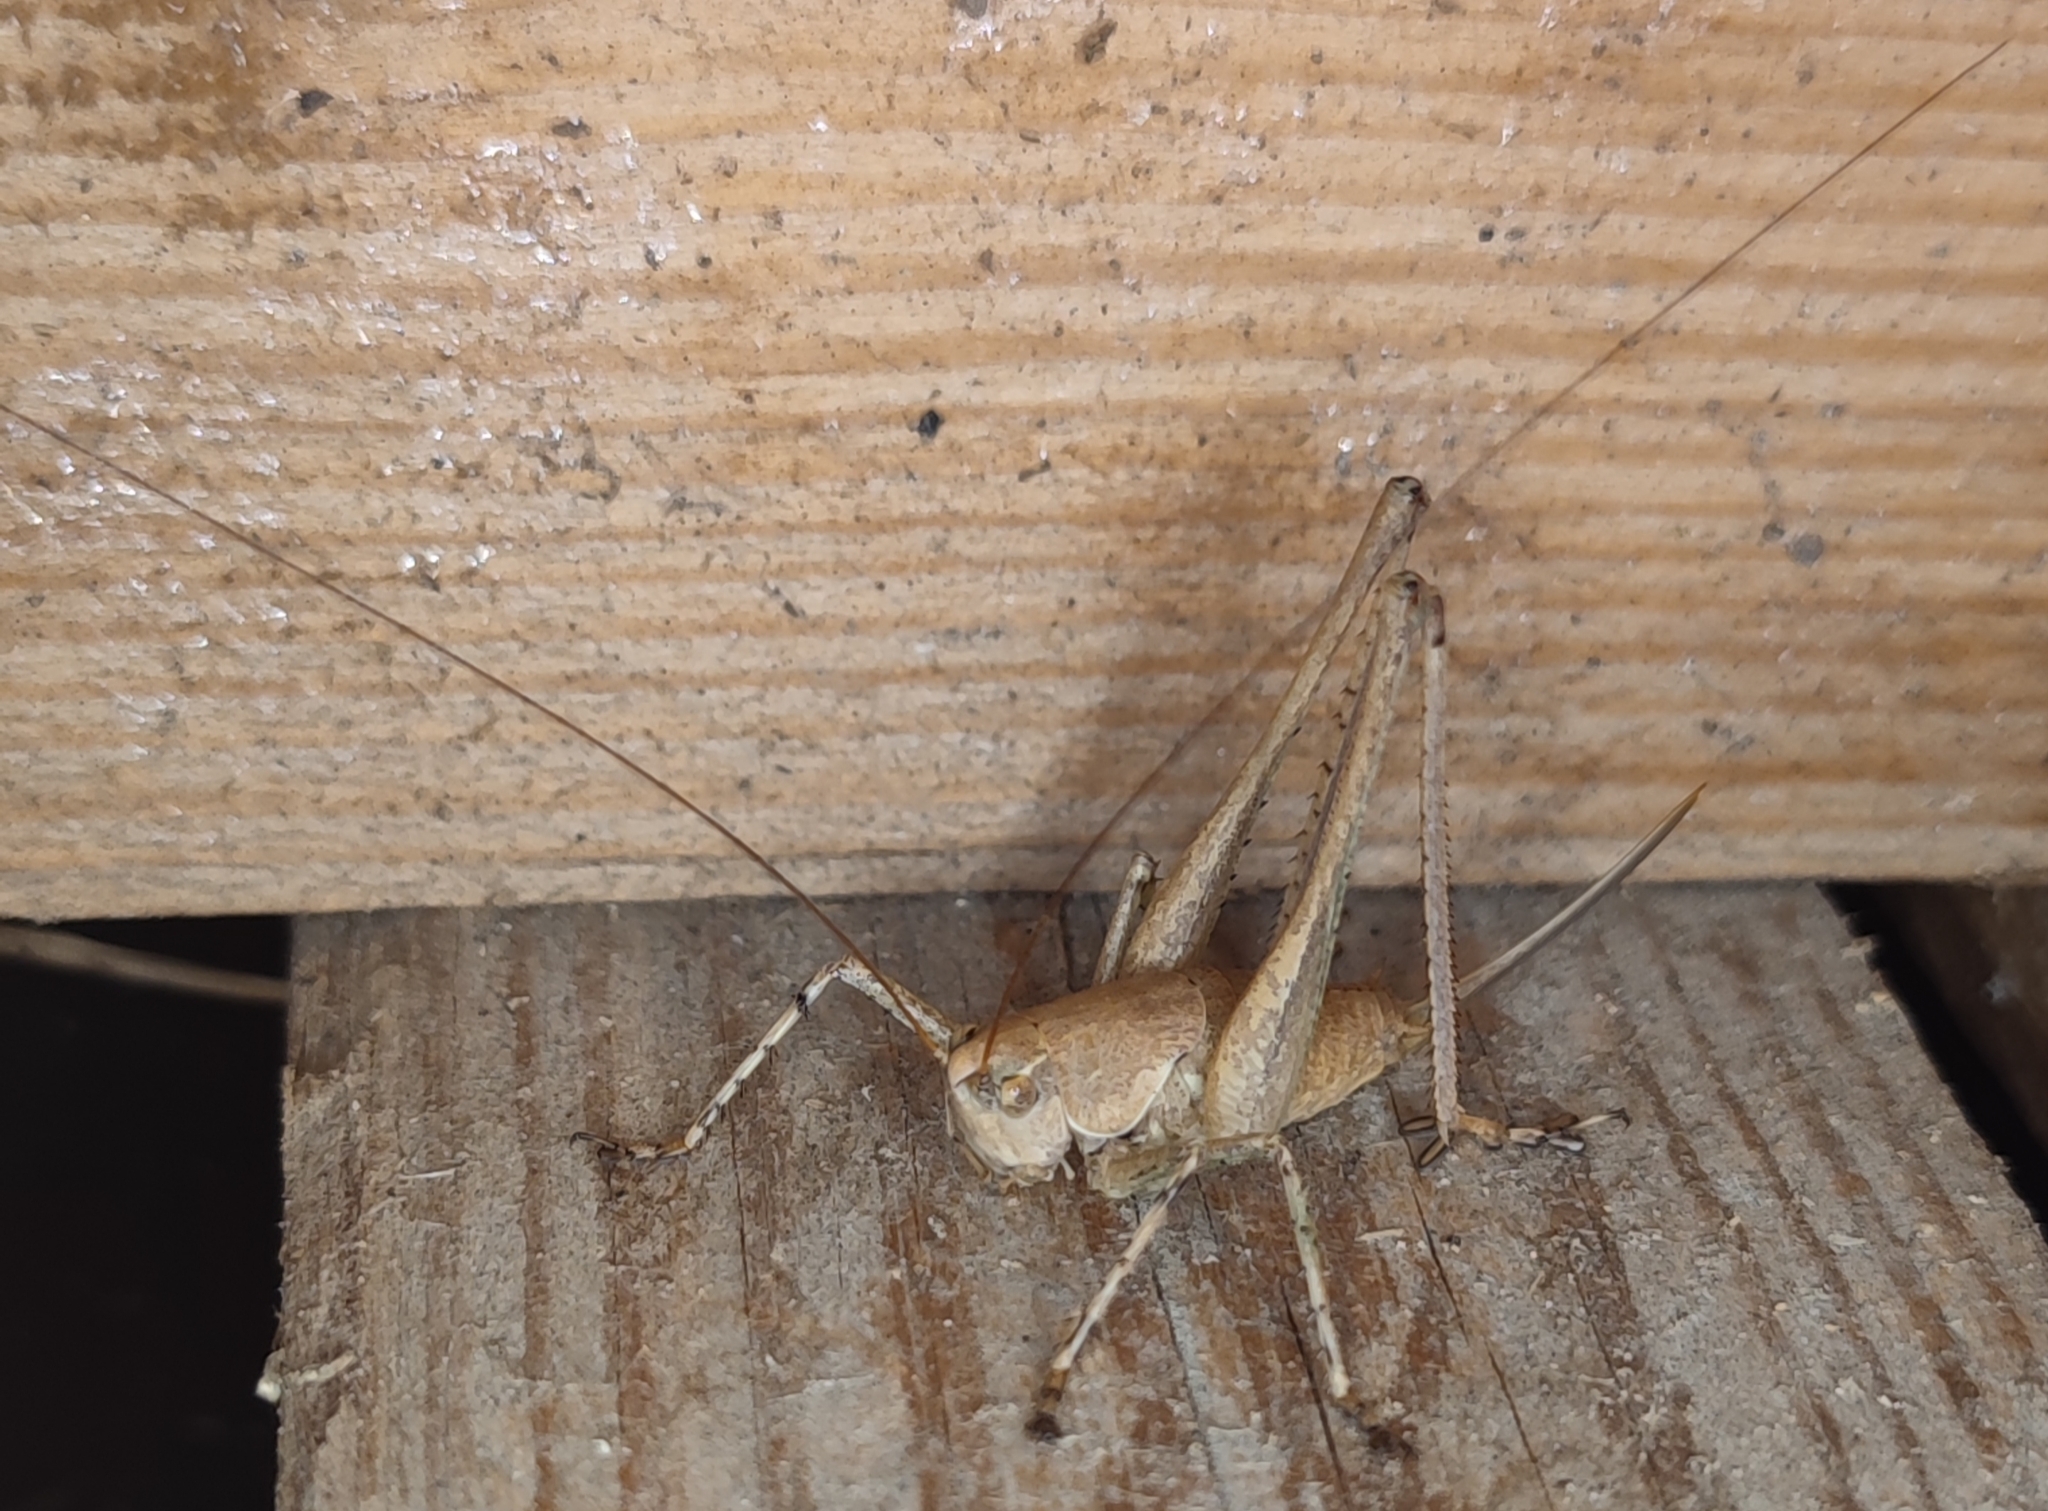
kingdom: Animalia
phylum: Arthropoda
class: Insecta
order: Orthoptera
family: Tettigoniidae
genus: Rhacocleis
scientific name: Rhacocleis annulata
